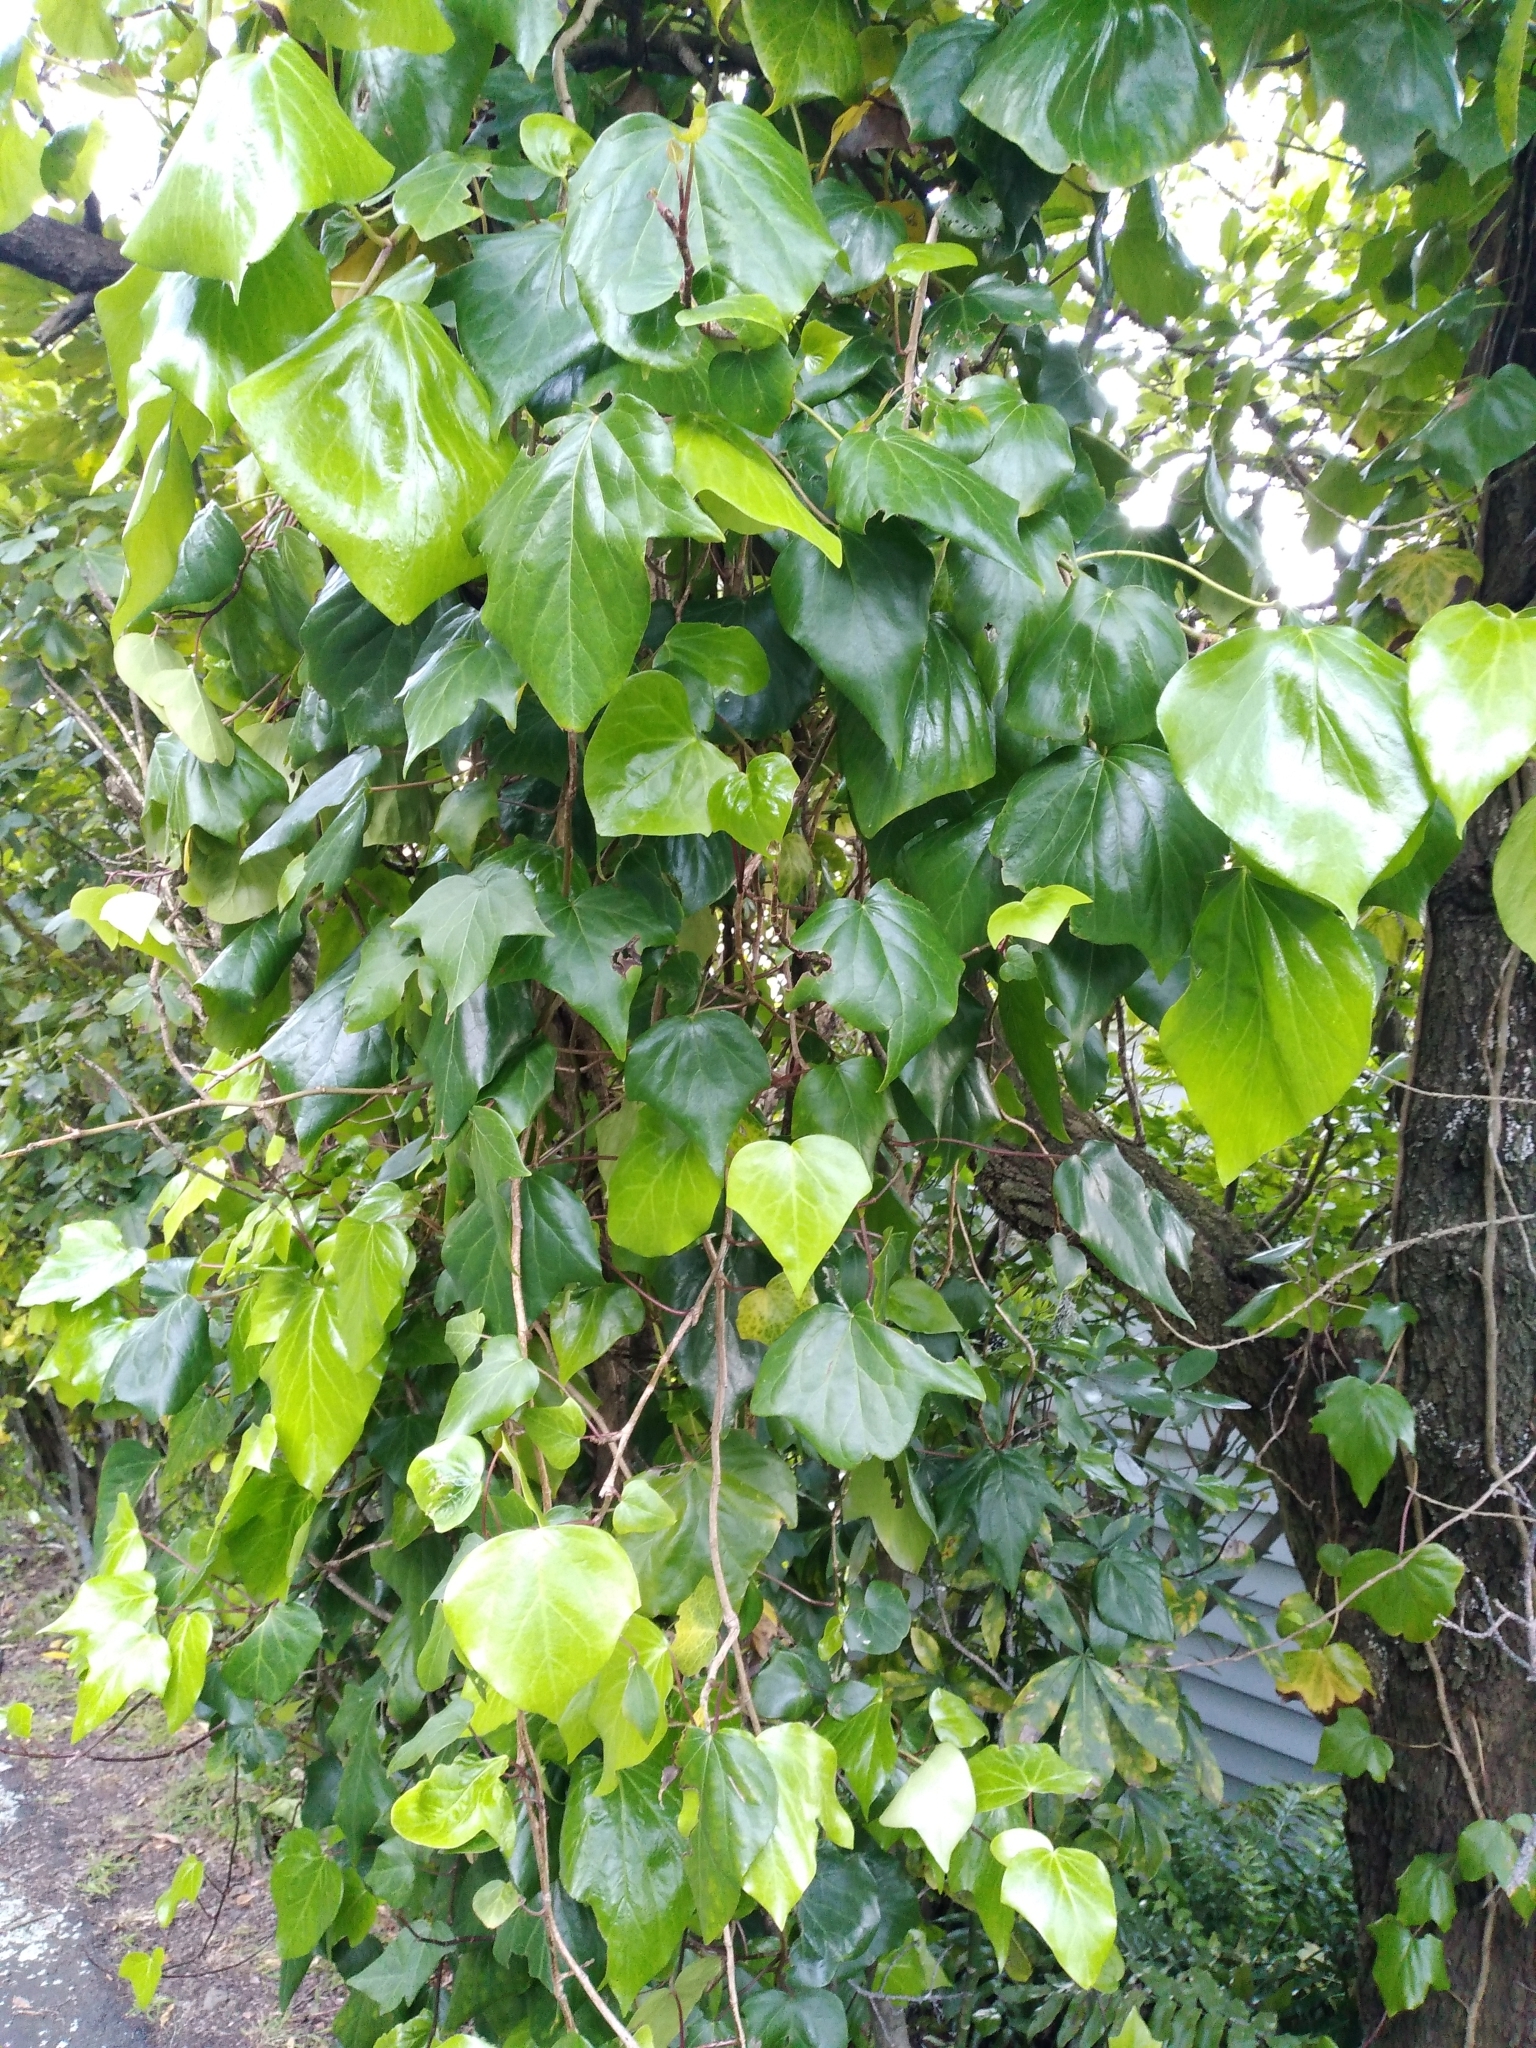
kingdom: Plantae
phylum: Tracheophyta
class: Magnoliopsida
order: Apiales
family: Araliaceae
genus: Hedera
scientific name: Hedera helix
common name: Ivy
